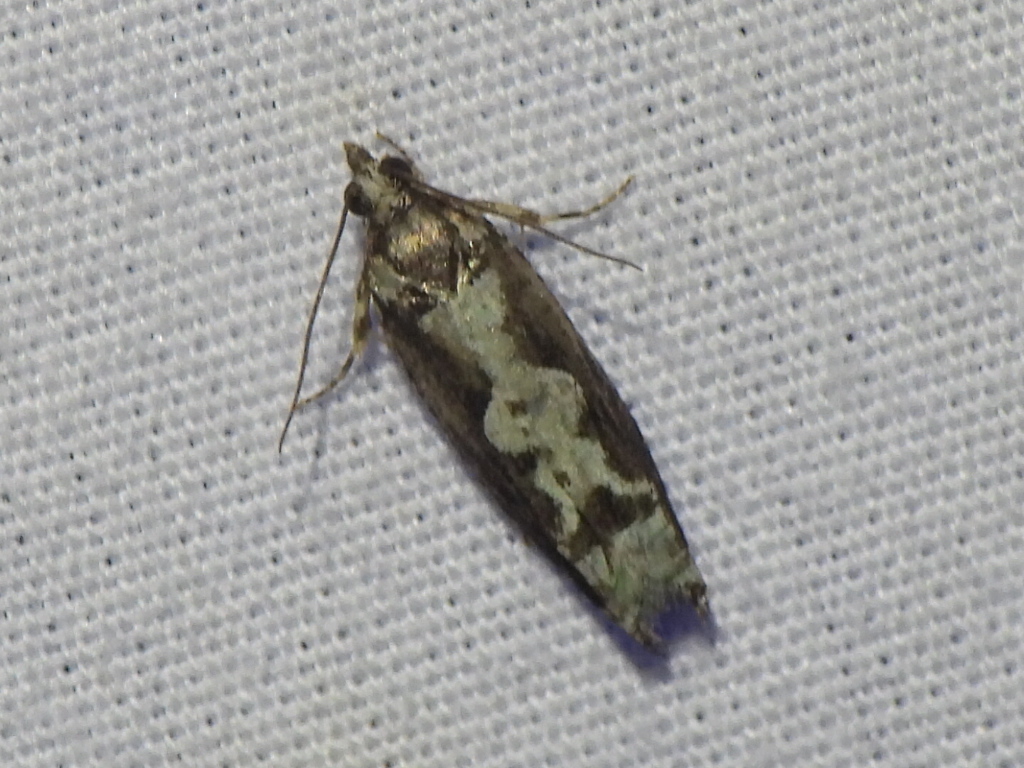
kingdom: Animalia
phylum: Arthropoda
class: Insecta
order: Lepidoptera
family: Tortricidae
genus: Chimoptesis
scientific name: Chimoptesis pennsylvaniana
